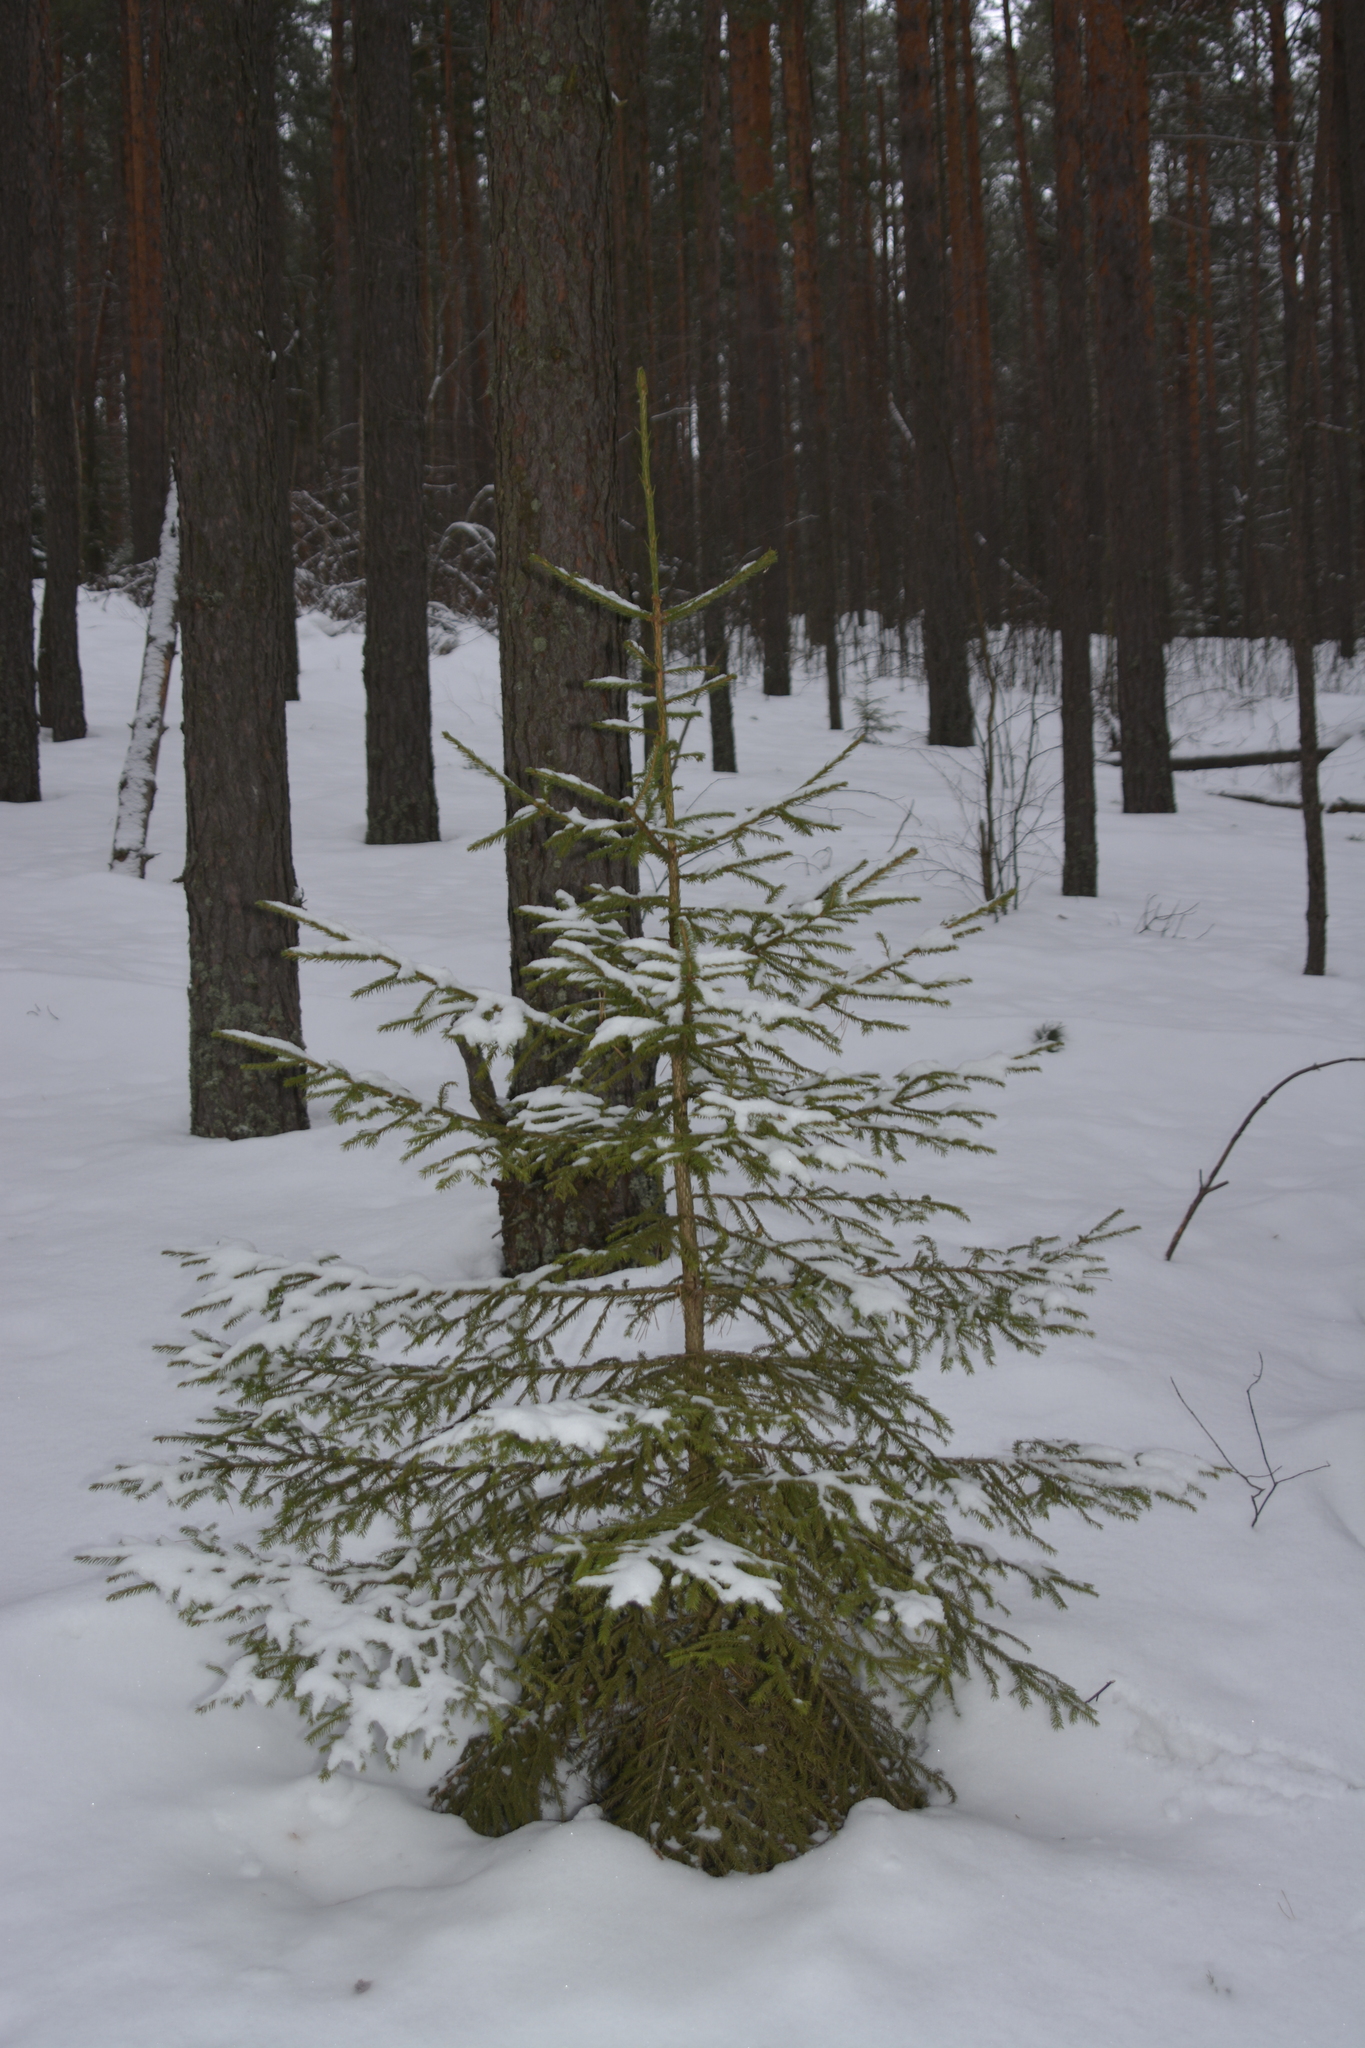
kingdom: Plantae
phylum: Tracheophyta
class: Pinopsida
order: Pinales
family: Pinaceae
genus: Picea
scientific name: Picea abies
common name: Norway spruce
